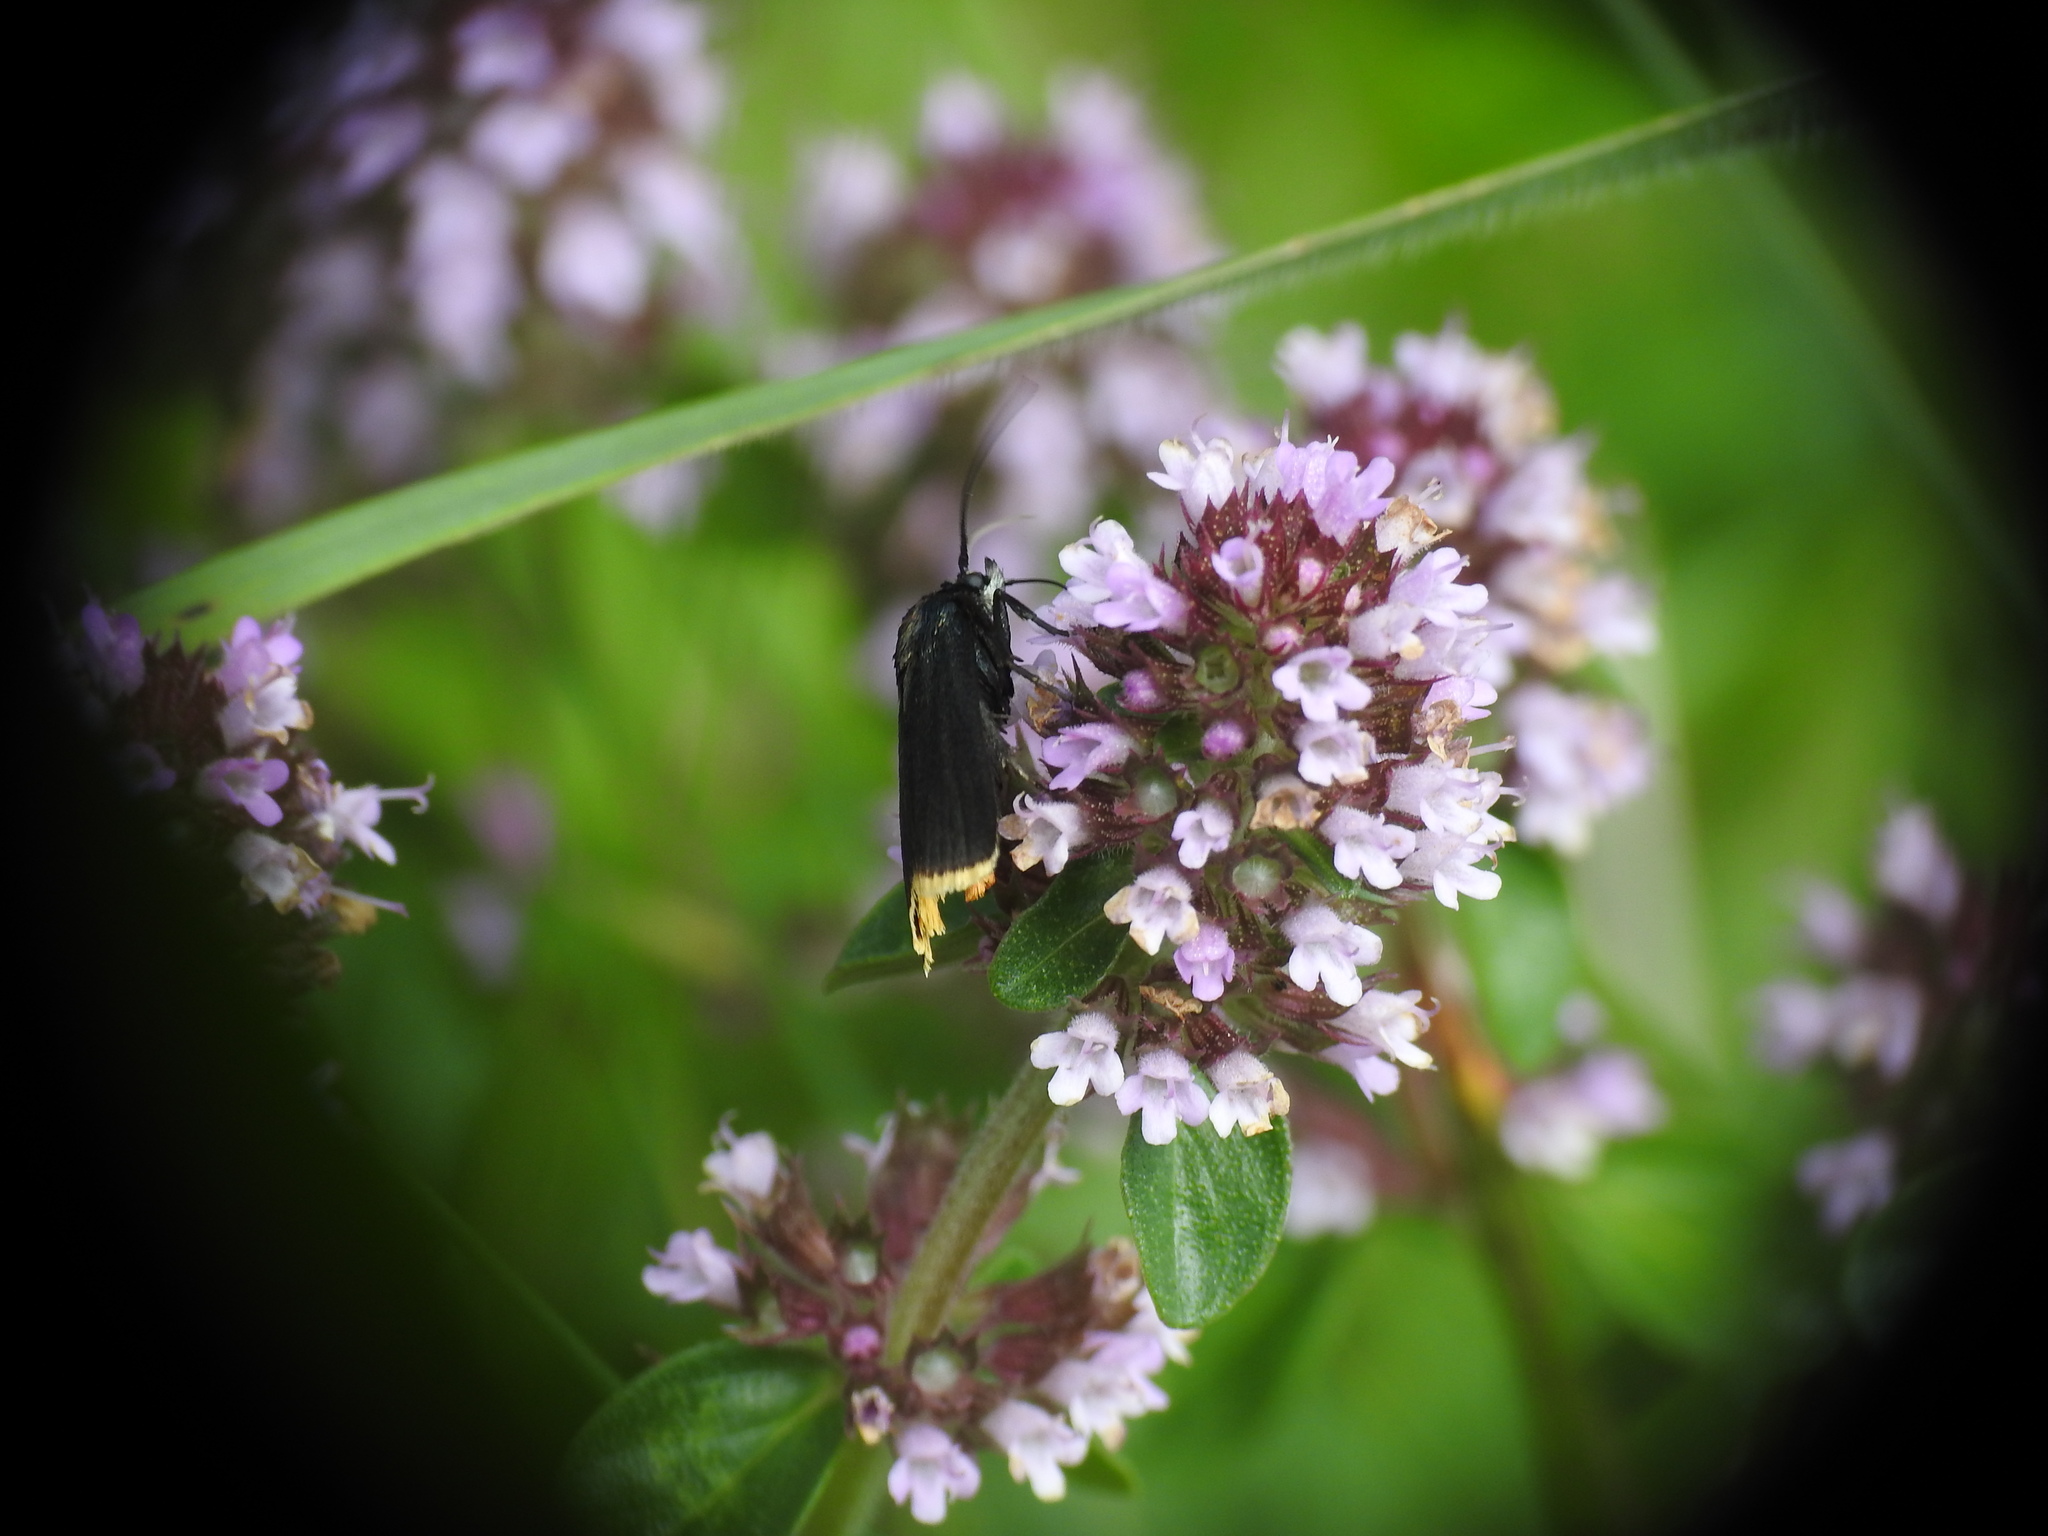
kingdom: Animalia
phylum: Arthropoda
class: Insecta
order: Lepidoptera
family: Pyralidae
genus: Catastia
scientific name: Catastia marginea
